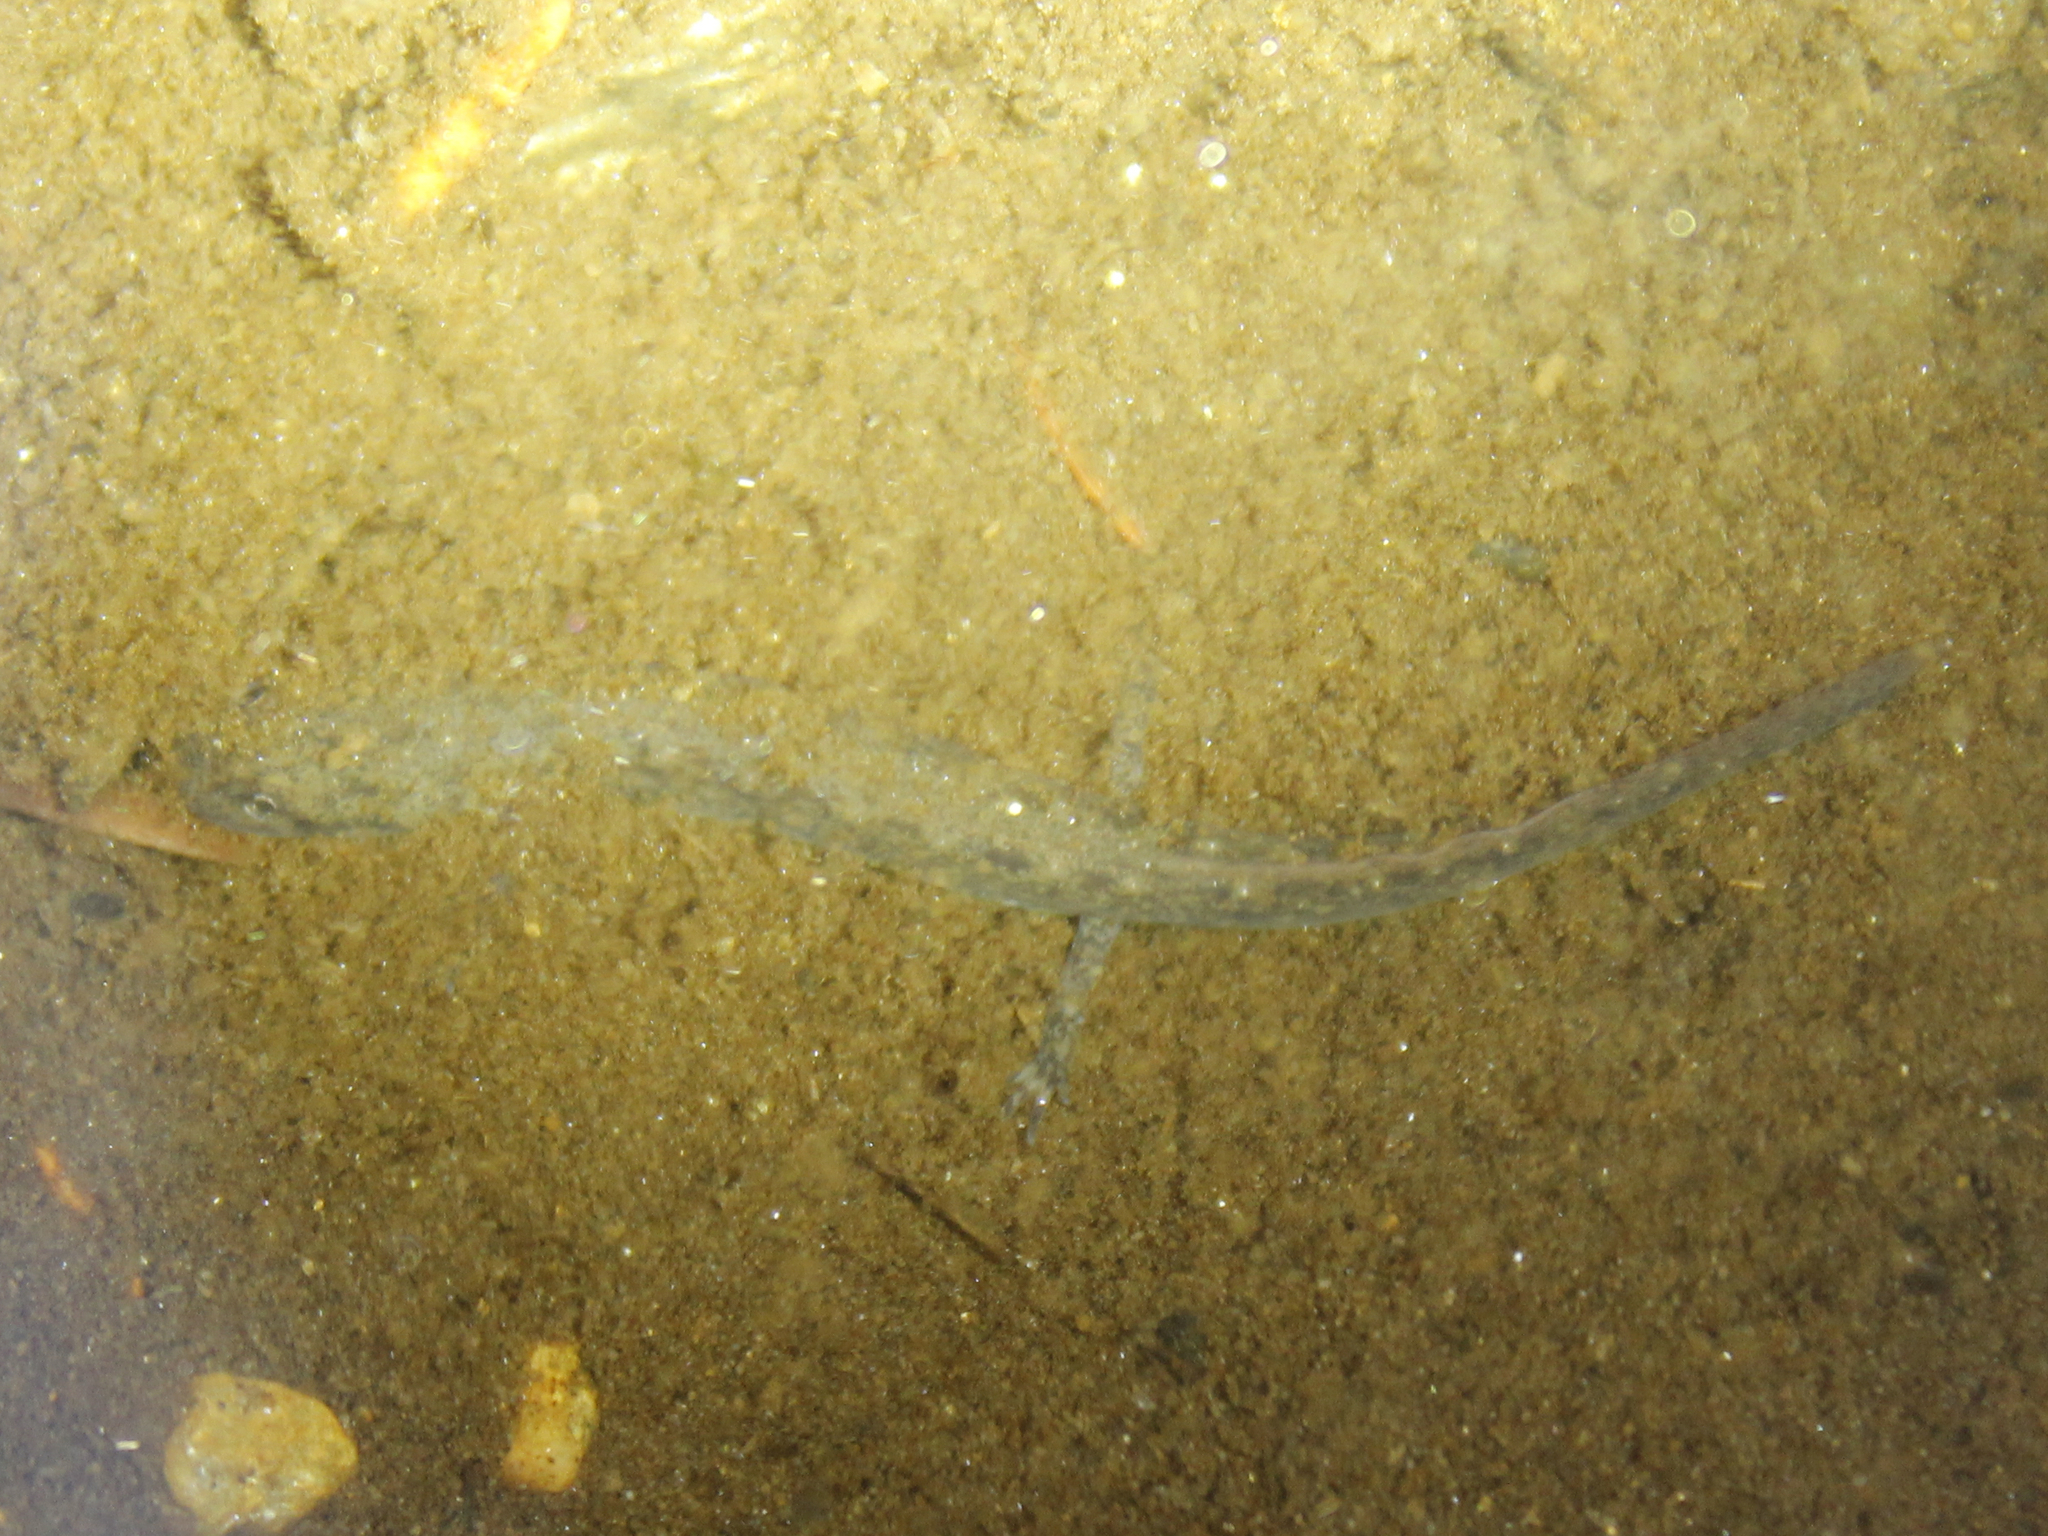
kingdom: Animalia
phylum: Chordata
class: Amphibia
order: Caudata
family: Plethodontidae
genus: Eurycea
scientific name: Eurycea bislineata
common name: Northern two-lined salamander
